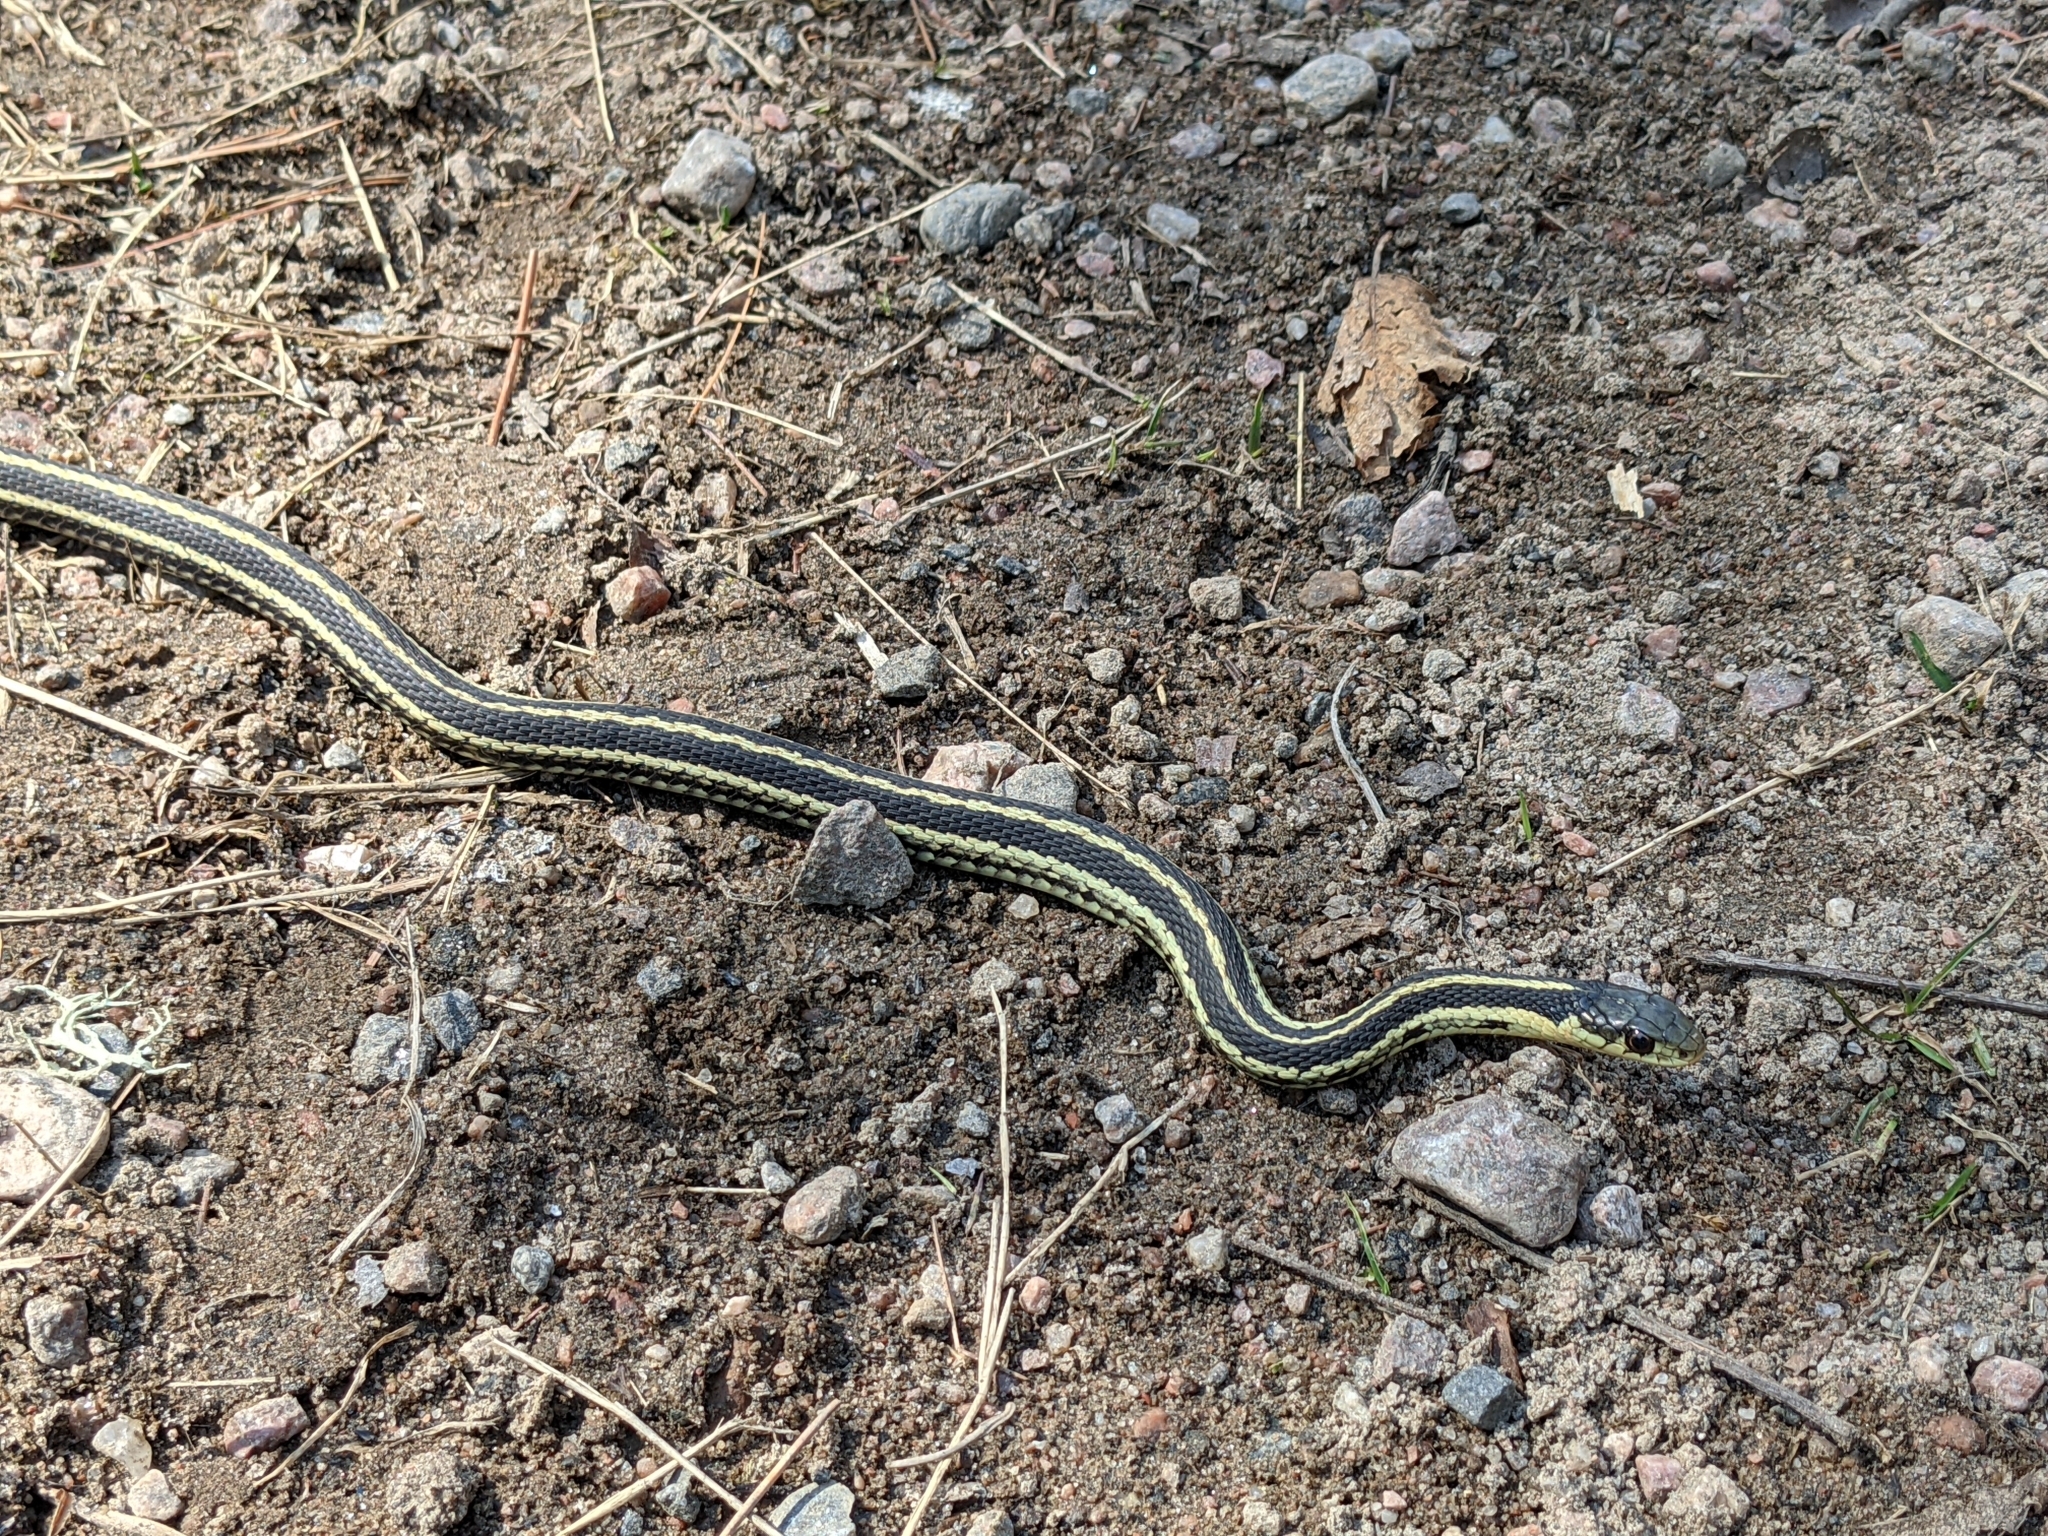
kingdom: Animalia
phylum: Chordata
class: Squamata
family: Colubridae
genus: Thamnophis
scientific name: Thamnophis sirtalis
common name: Common garter snake
